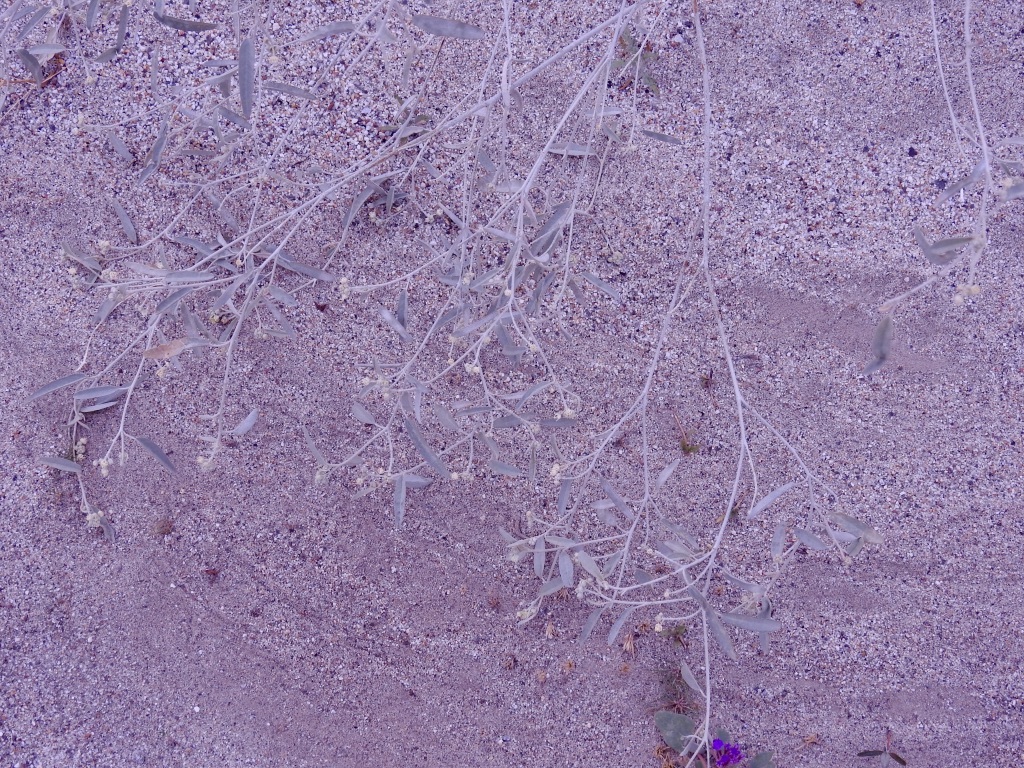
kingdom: Plantae
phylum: Tracheophyta
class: Magnoliopsida
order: Malpighiales
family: Euphorbiaceae
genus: Croton
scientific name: Croton californicus
